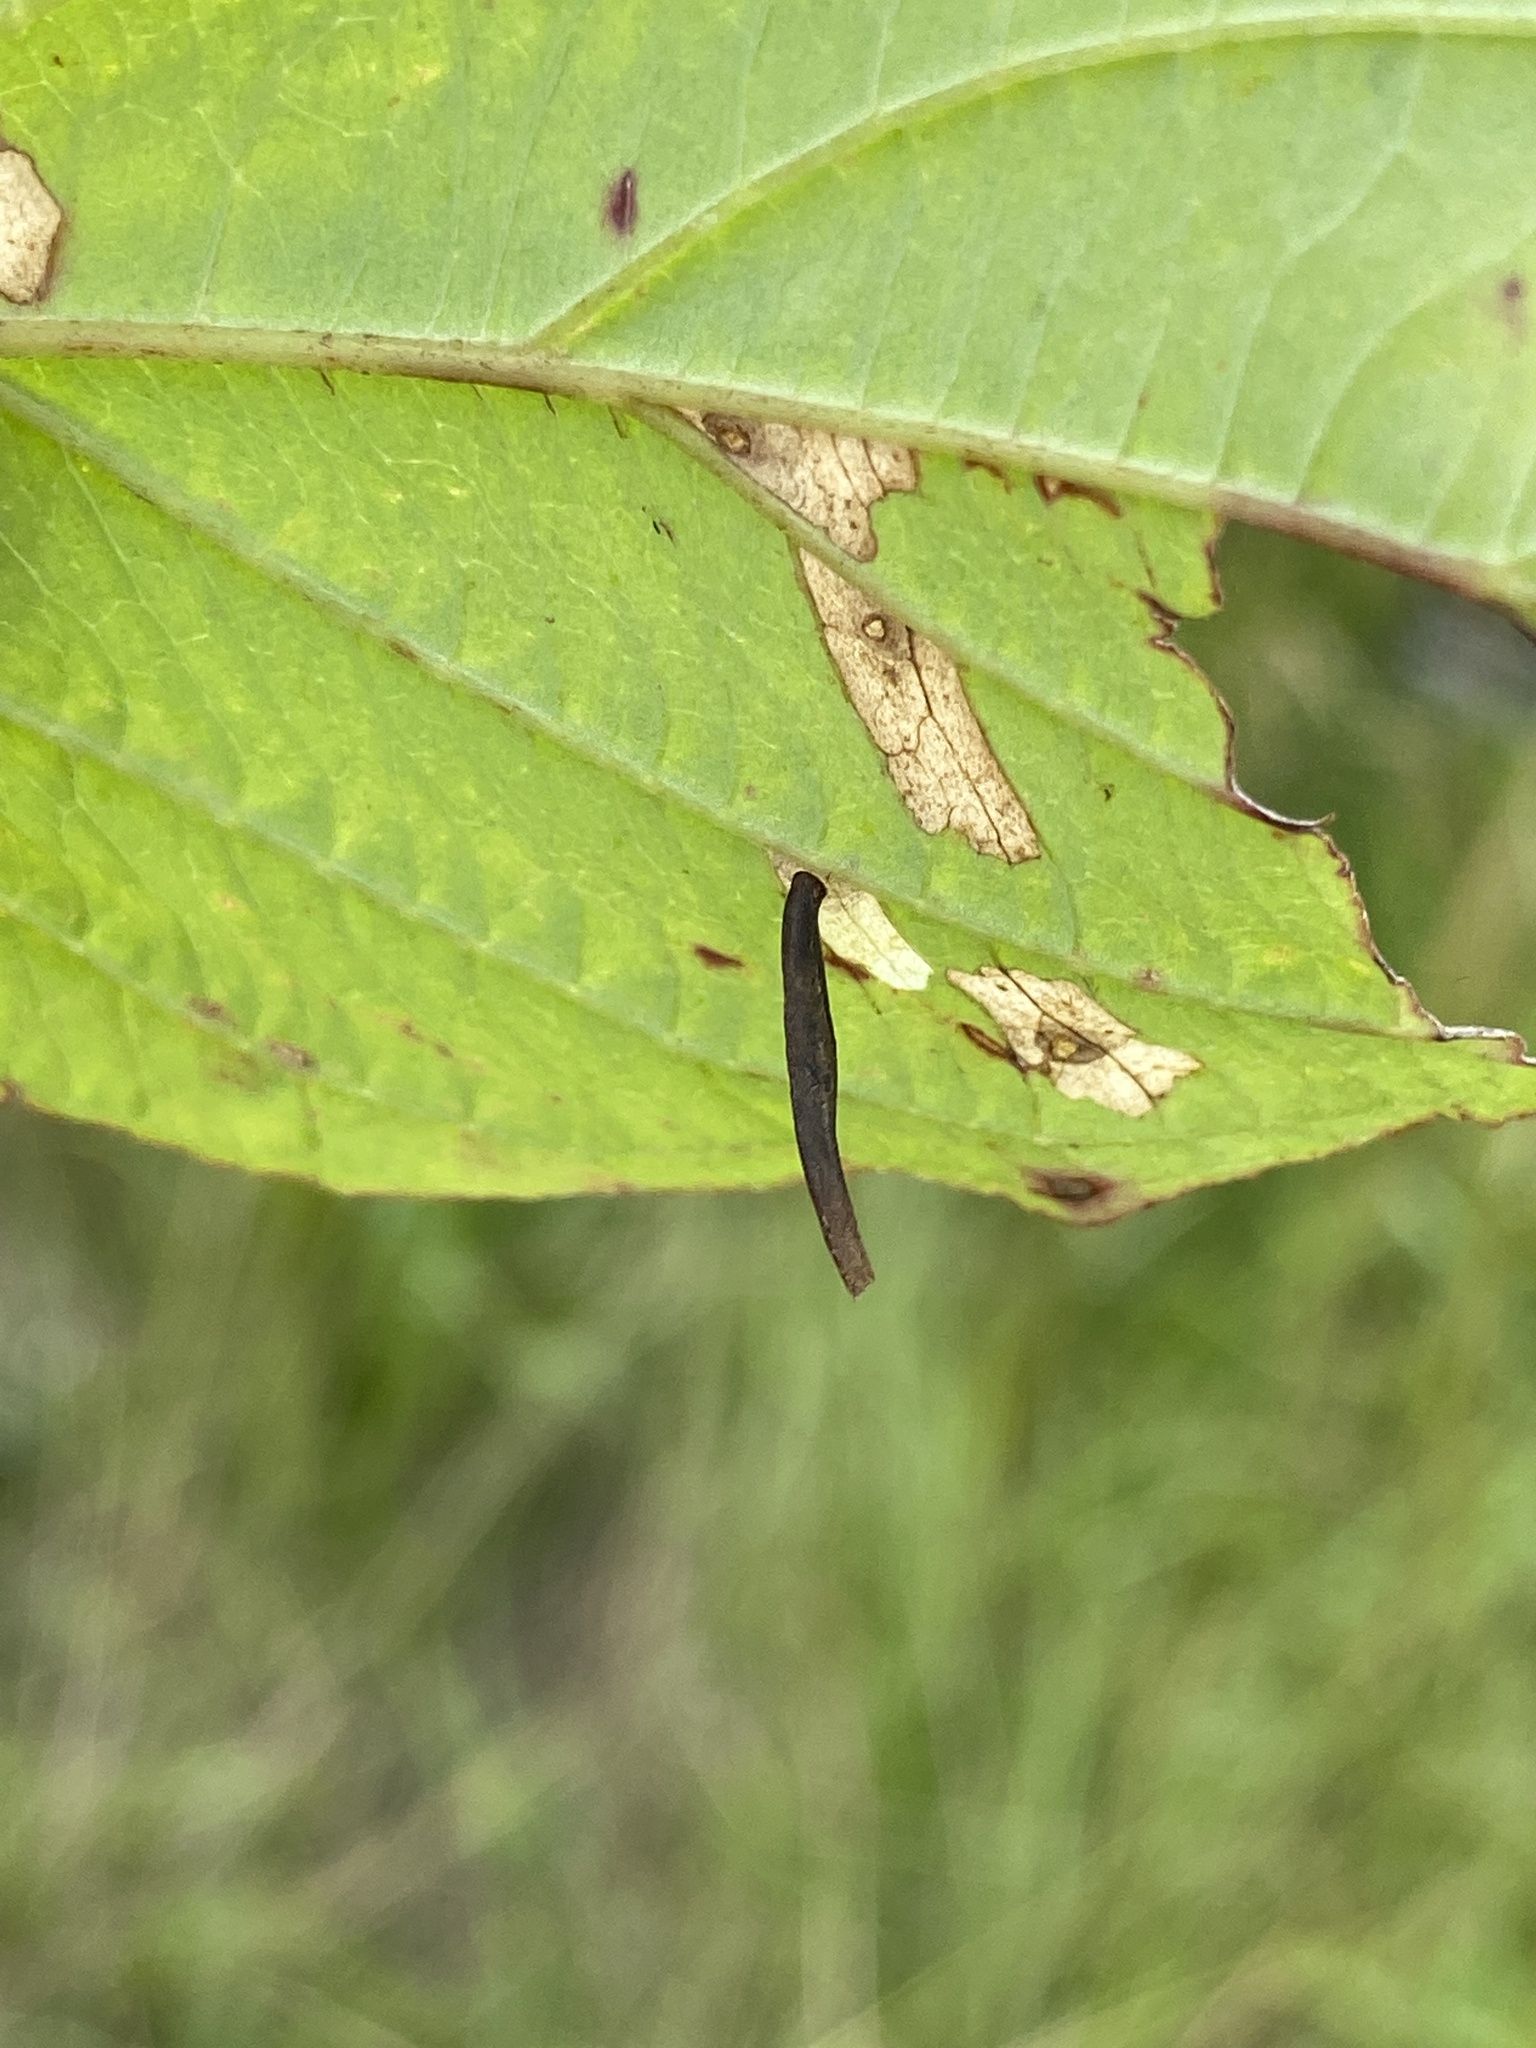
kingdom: Animalia
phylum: Arthropoda
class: Insecta
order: Lepidoptera
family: Coleophoridae
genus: Coleophora
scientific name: Coleophora cornella
